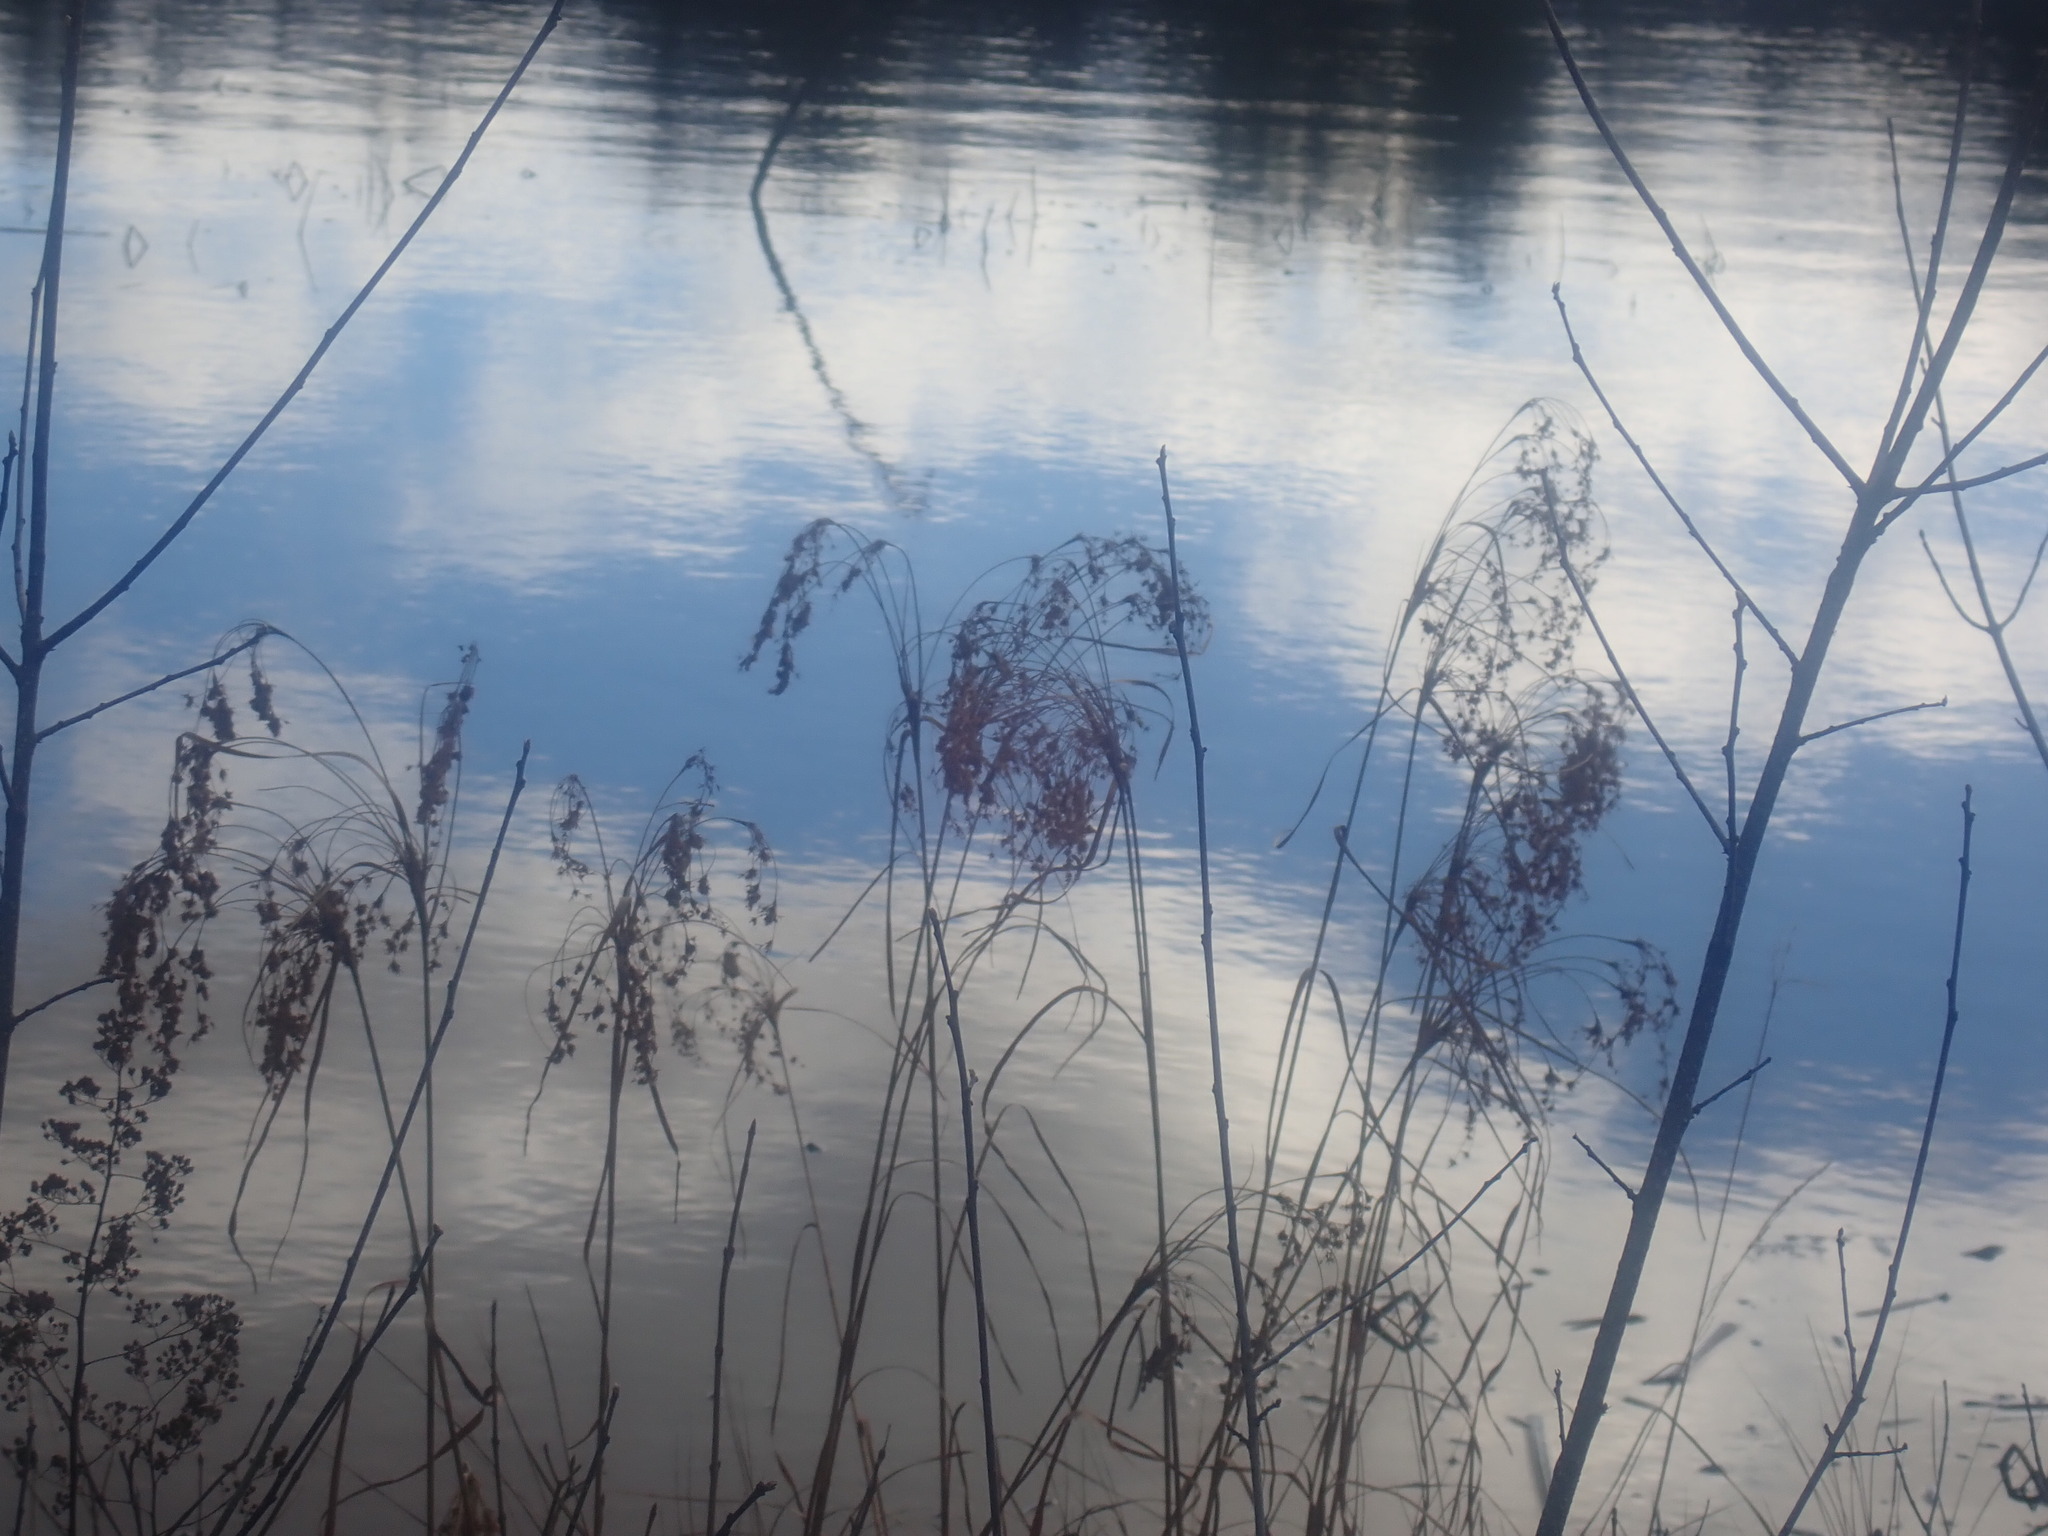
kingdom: Plantae
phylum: Tracheophyta
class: Liliopsida
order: Poales
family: Cyperaceae
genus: Scirpus
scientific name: Scirpus
